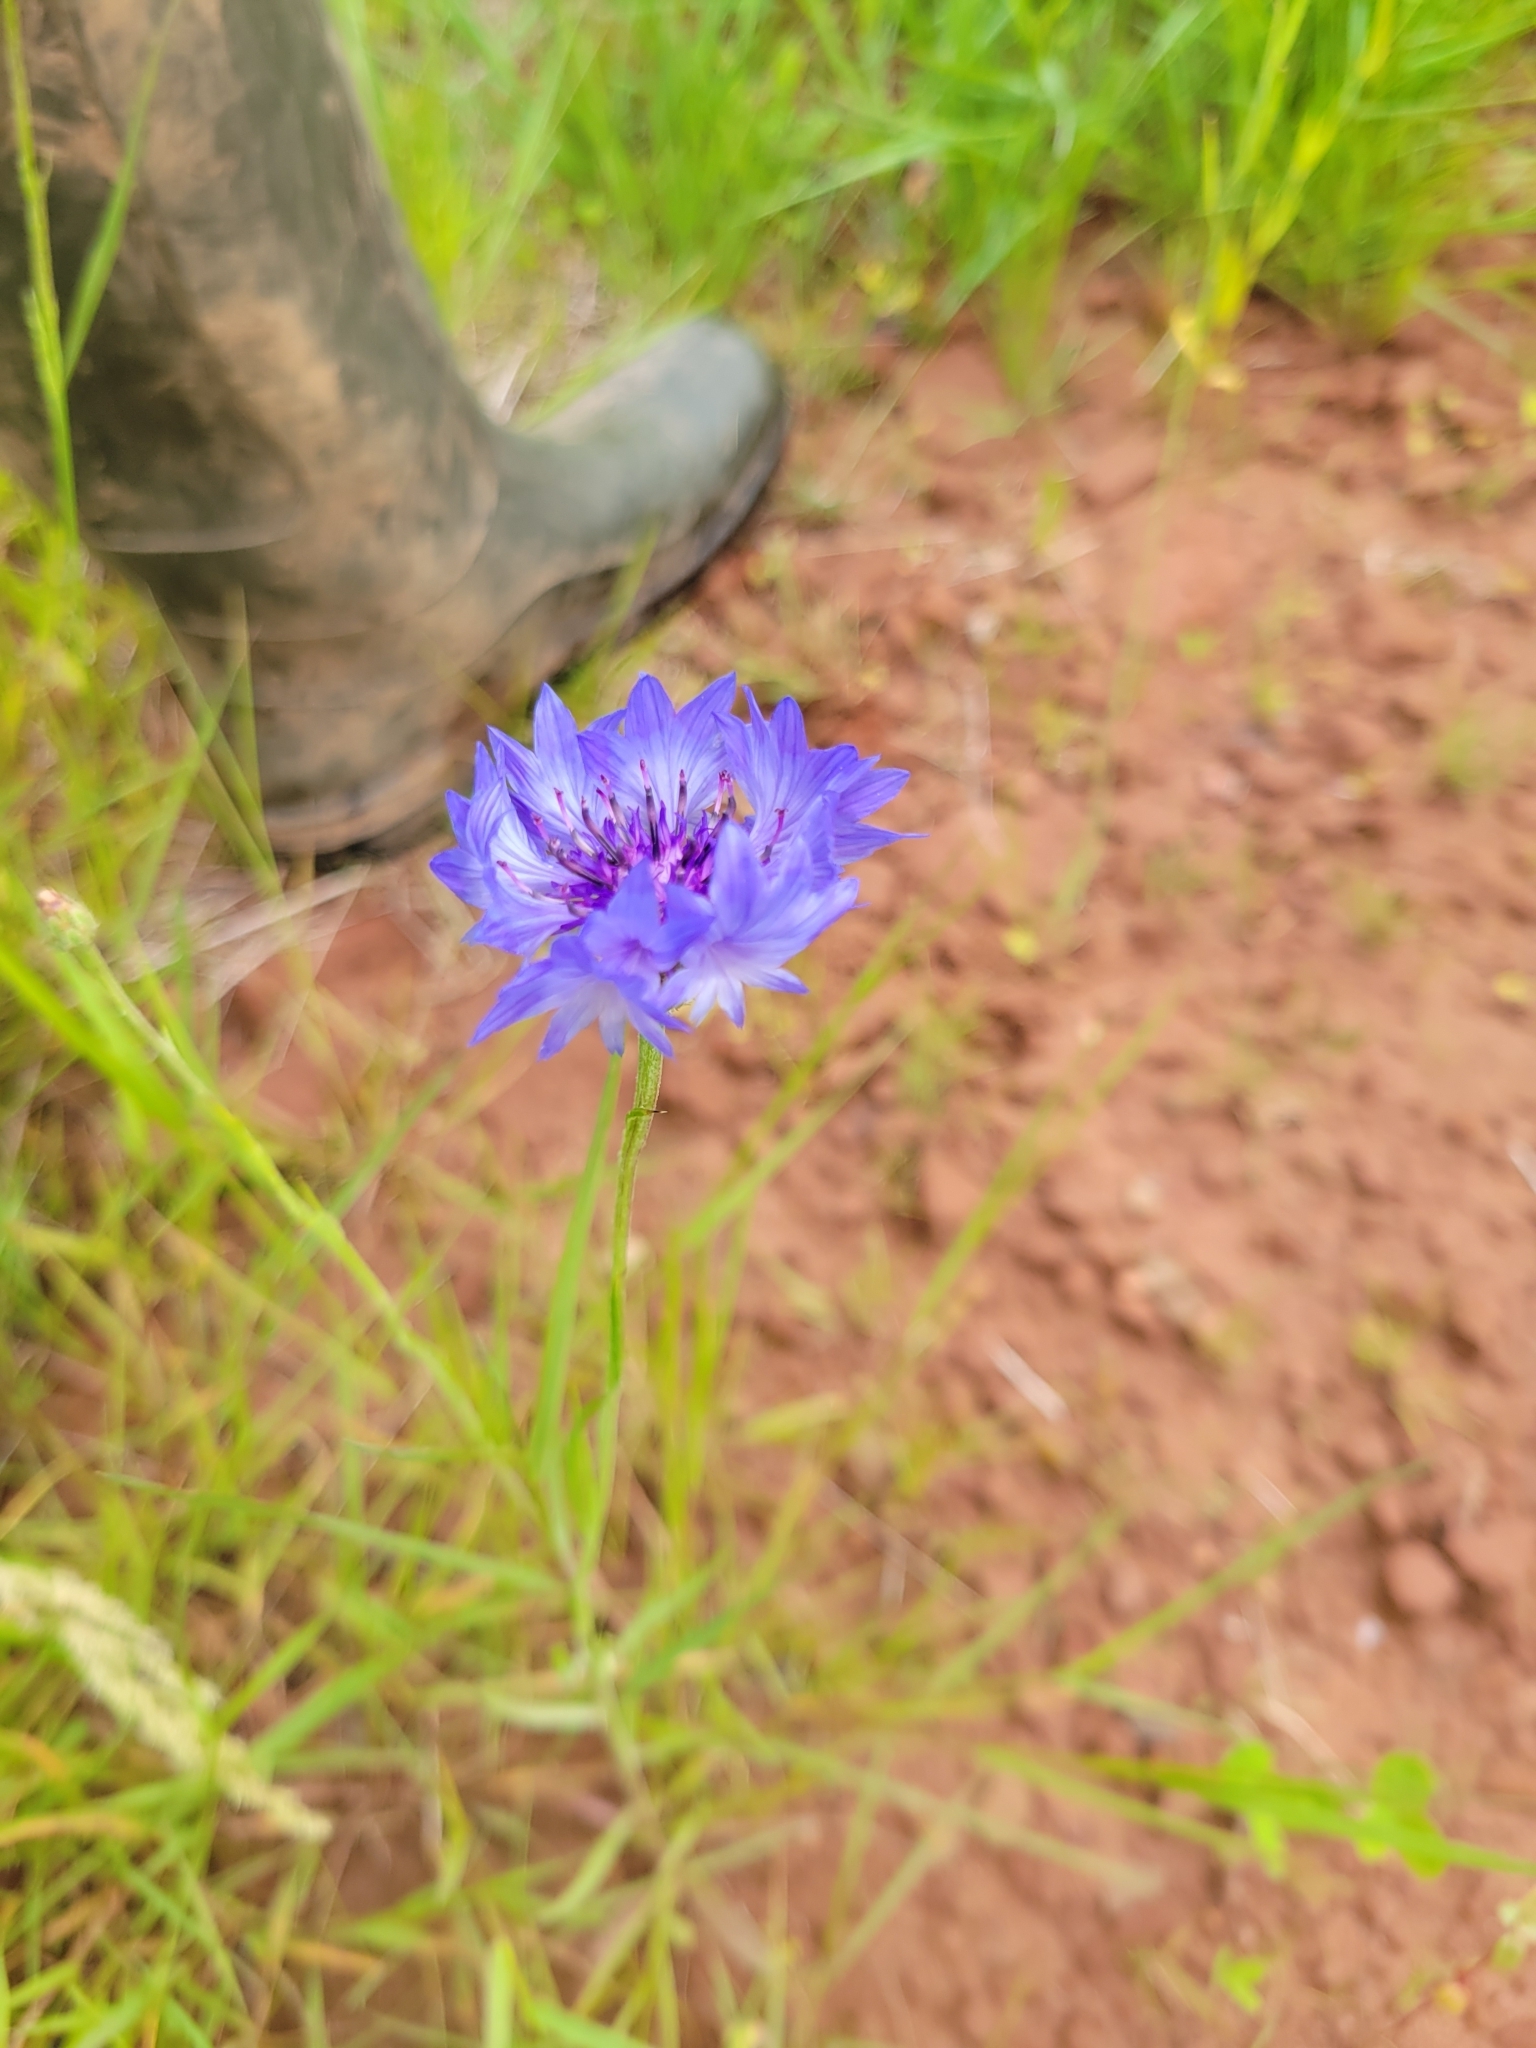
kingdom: Plantae
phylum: Tracheophyta
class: Magnoliopsida
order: Asterales
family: Asteraceae
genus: Centaurea
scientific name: Centaurea cyanus
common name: Cornflower
